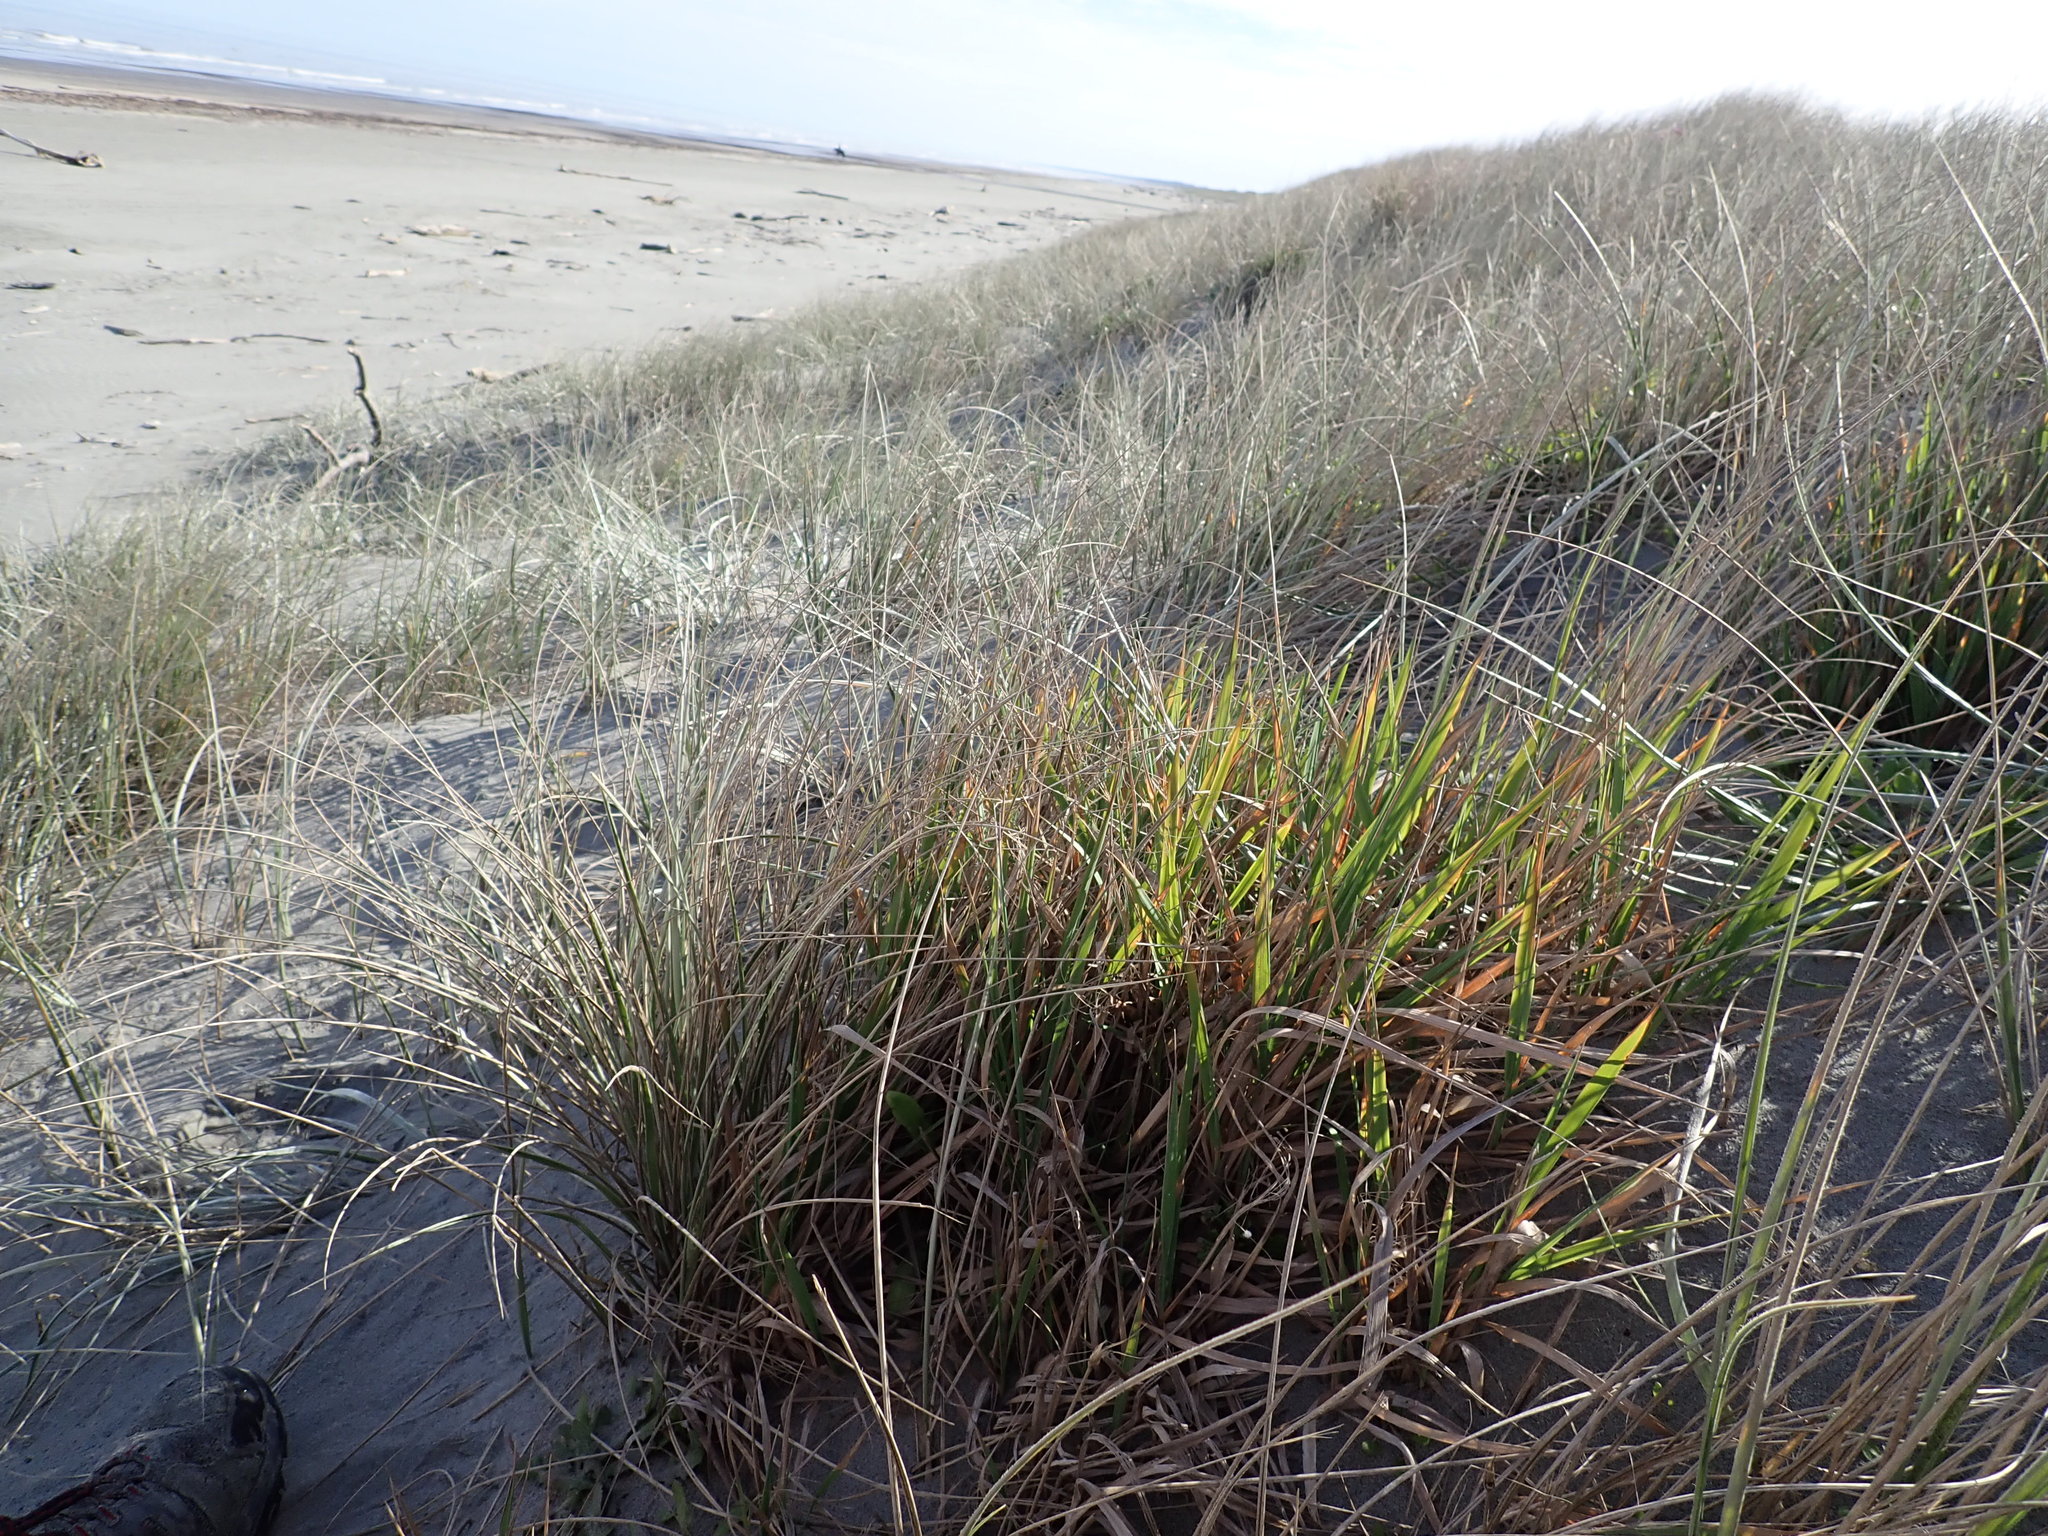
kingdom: Plantae
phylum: Tracheophyta
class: Liliopsida
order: Poales
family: Poaceae
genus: Lachnagrostis
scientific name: Lachnagrostis billardierei
